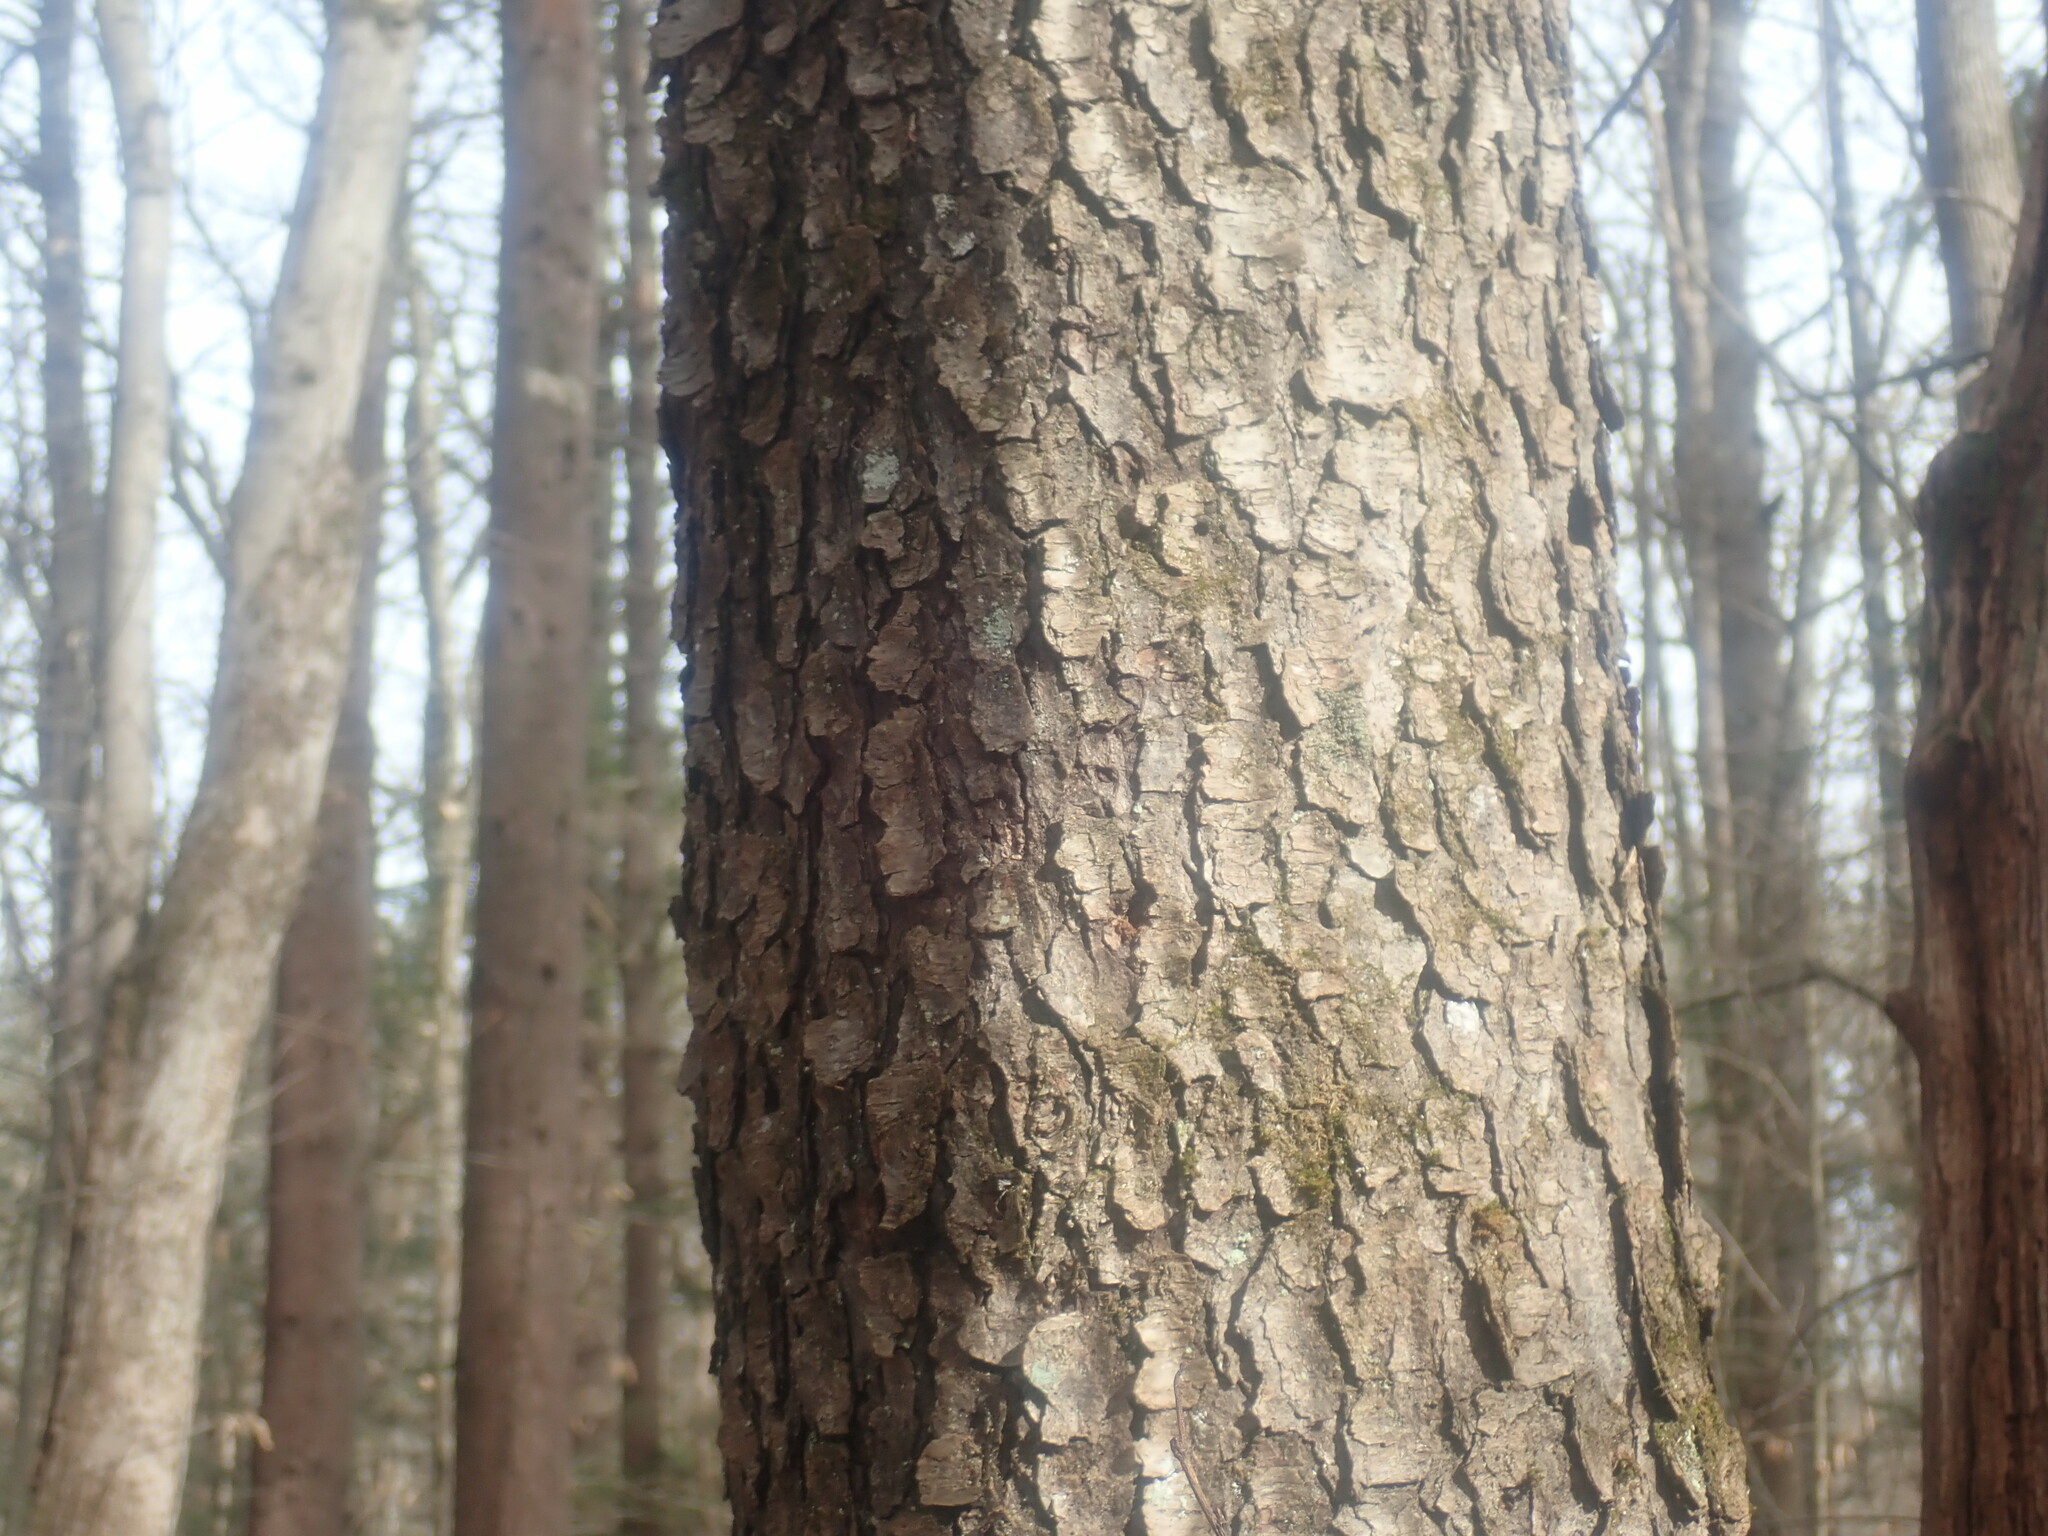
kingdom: Plantae
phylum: Tracheophyta
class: Magnoliopsida
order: Rosales
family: Rosaceae
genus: Prunus
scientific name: Prunus serotina
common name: Black cherry
